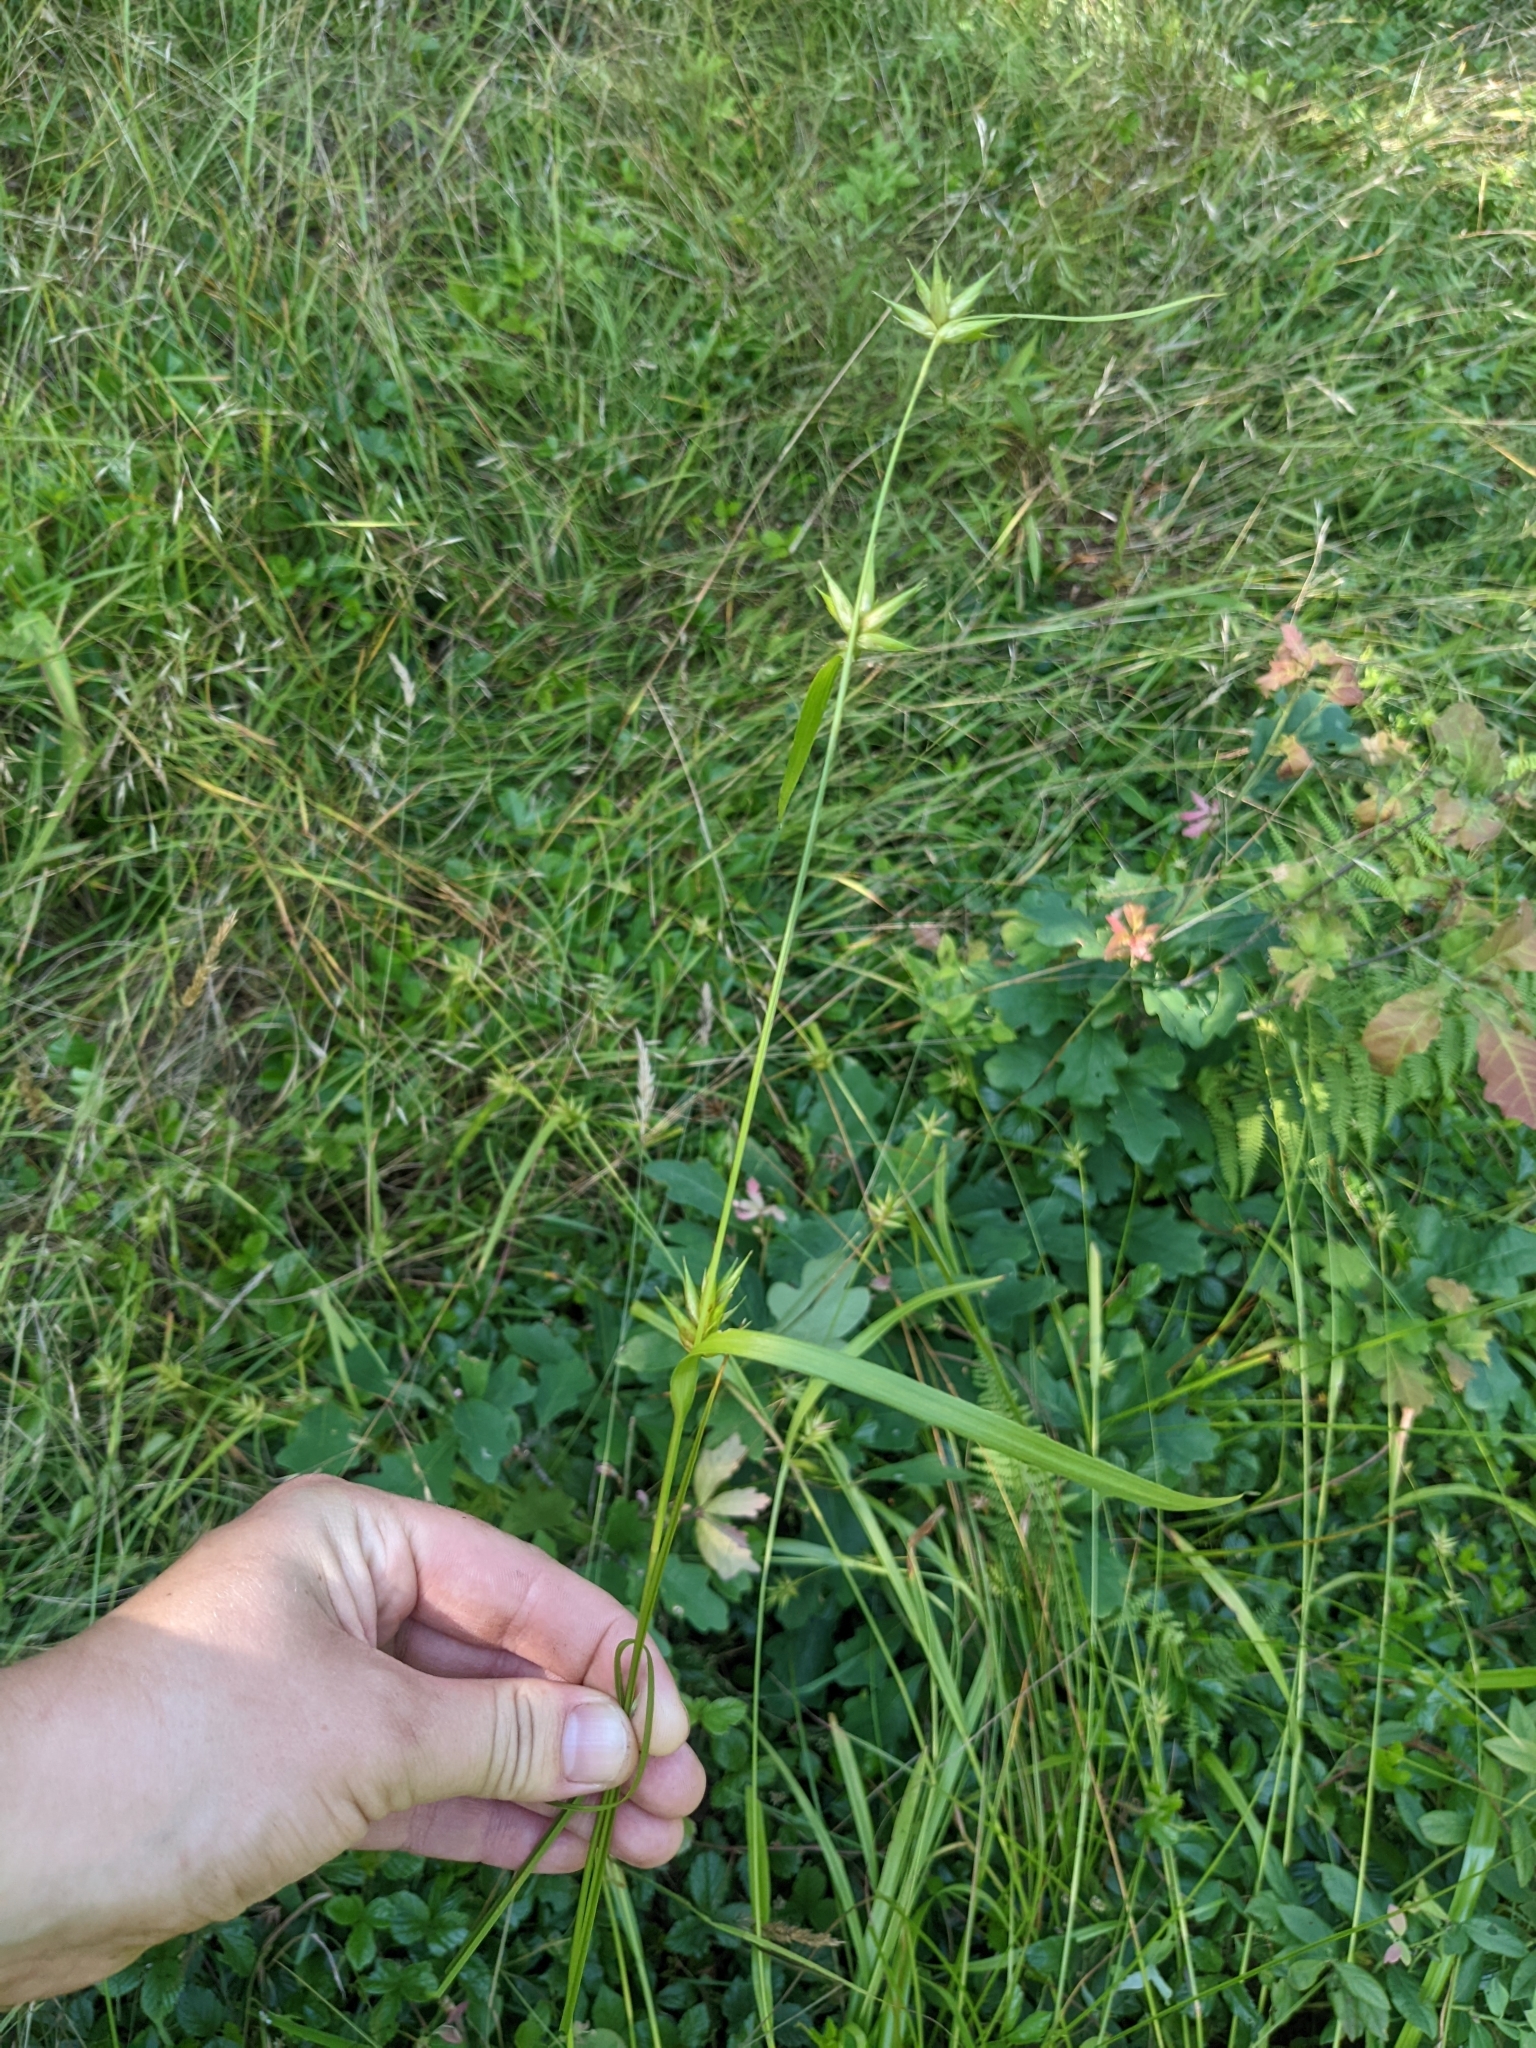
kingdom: Plantae
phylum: Tracheophyta
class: Liliopsida
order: Poales
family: Cyperaceae
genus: Carex
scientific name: Carex folliculata
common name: Northern long sedge
